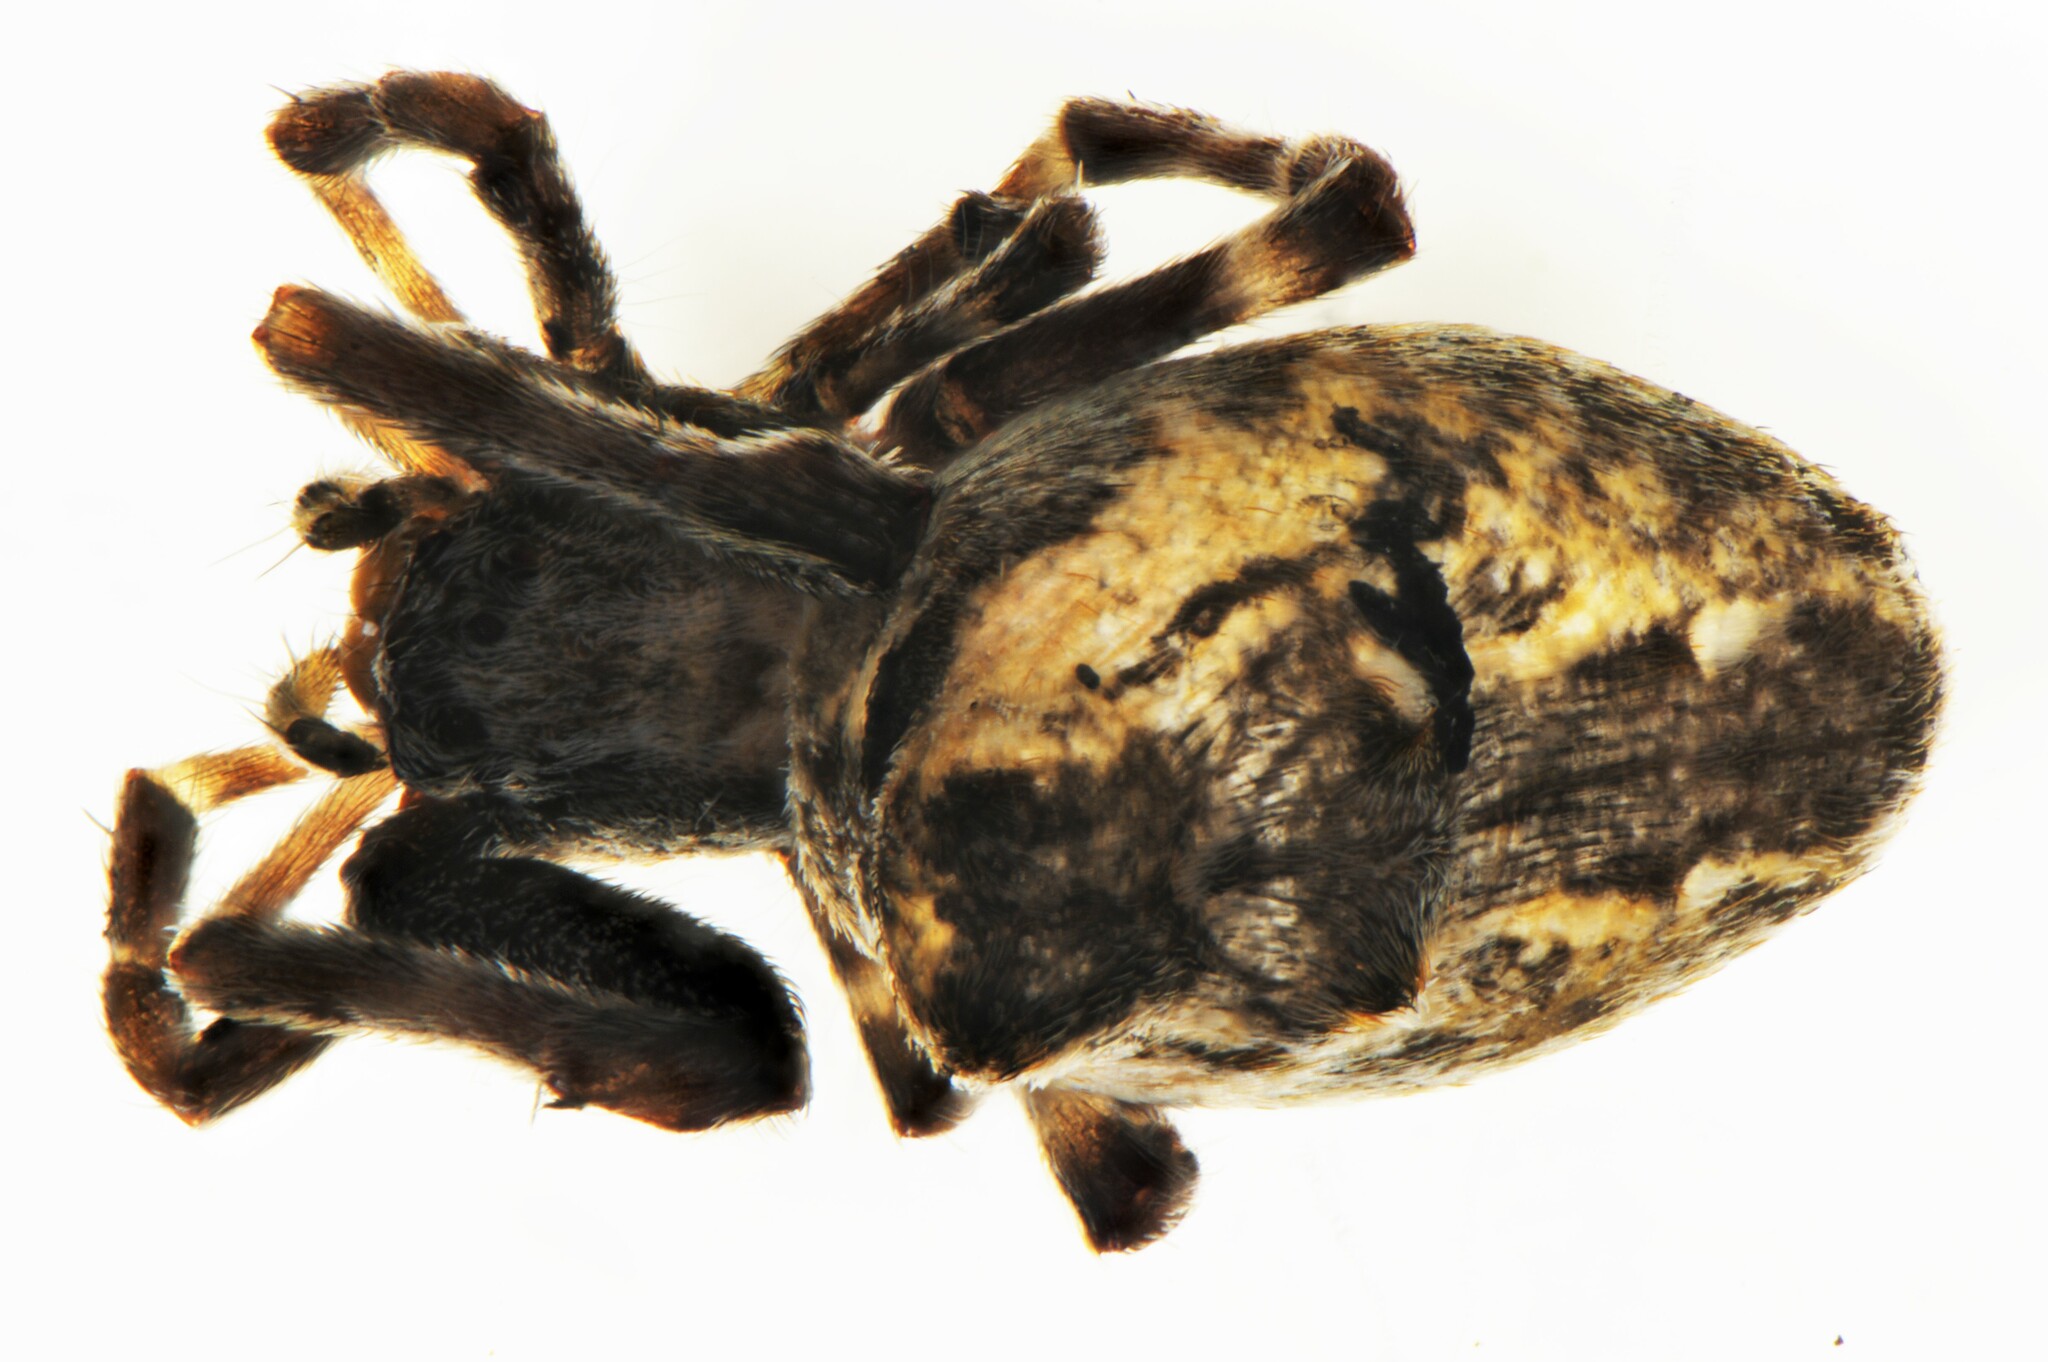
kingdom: Animalia
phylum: Arthropoda
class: Arachnida
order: Araneae
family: Uloboridae
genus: Philoponella
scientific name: Philoponella congregabilis
